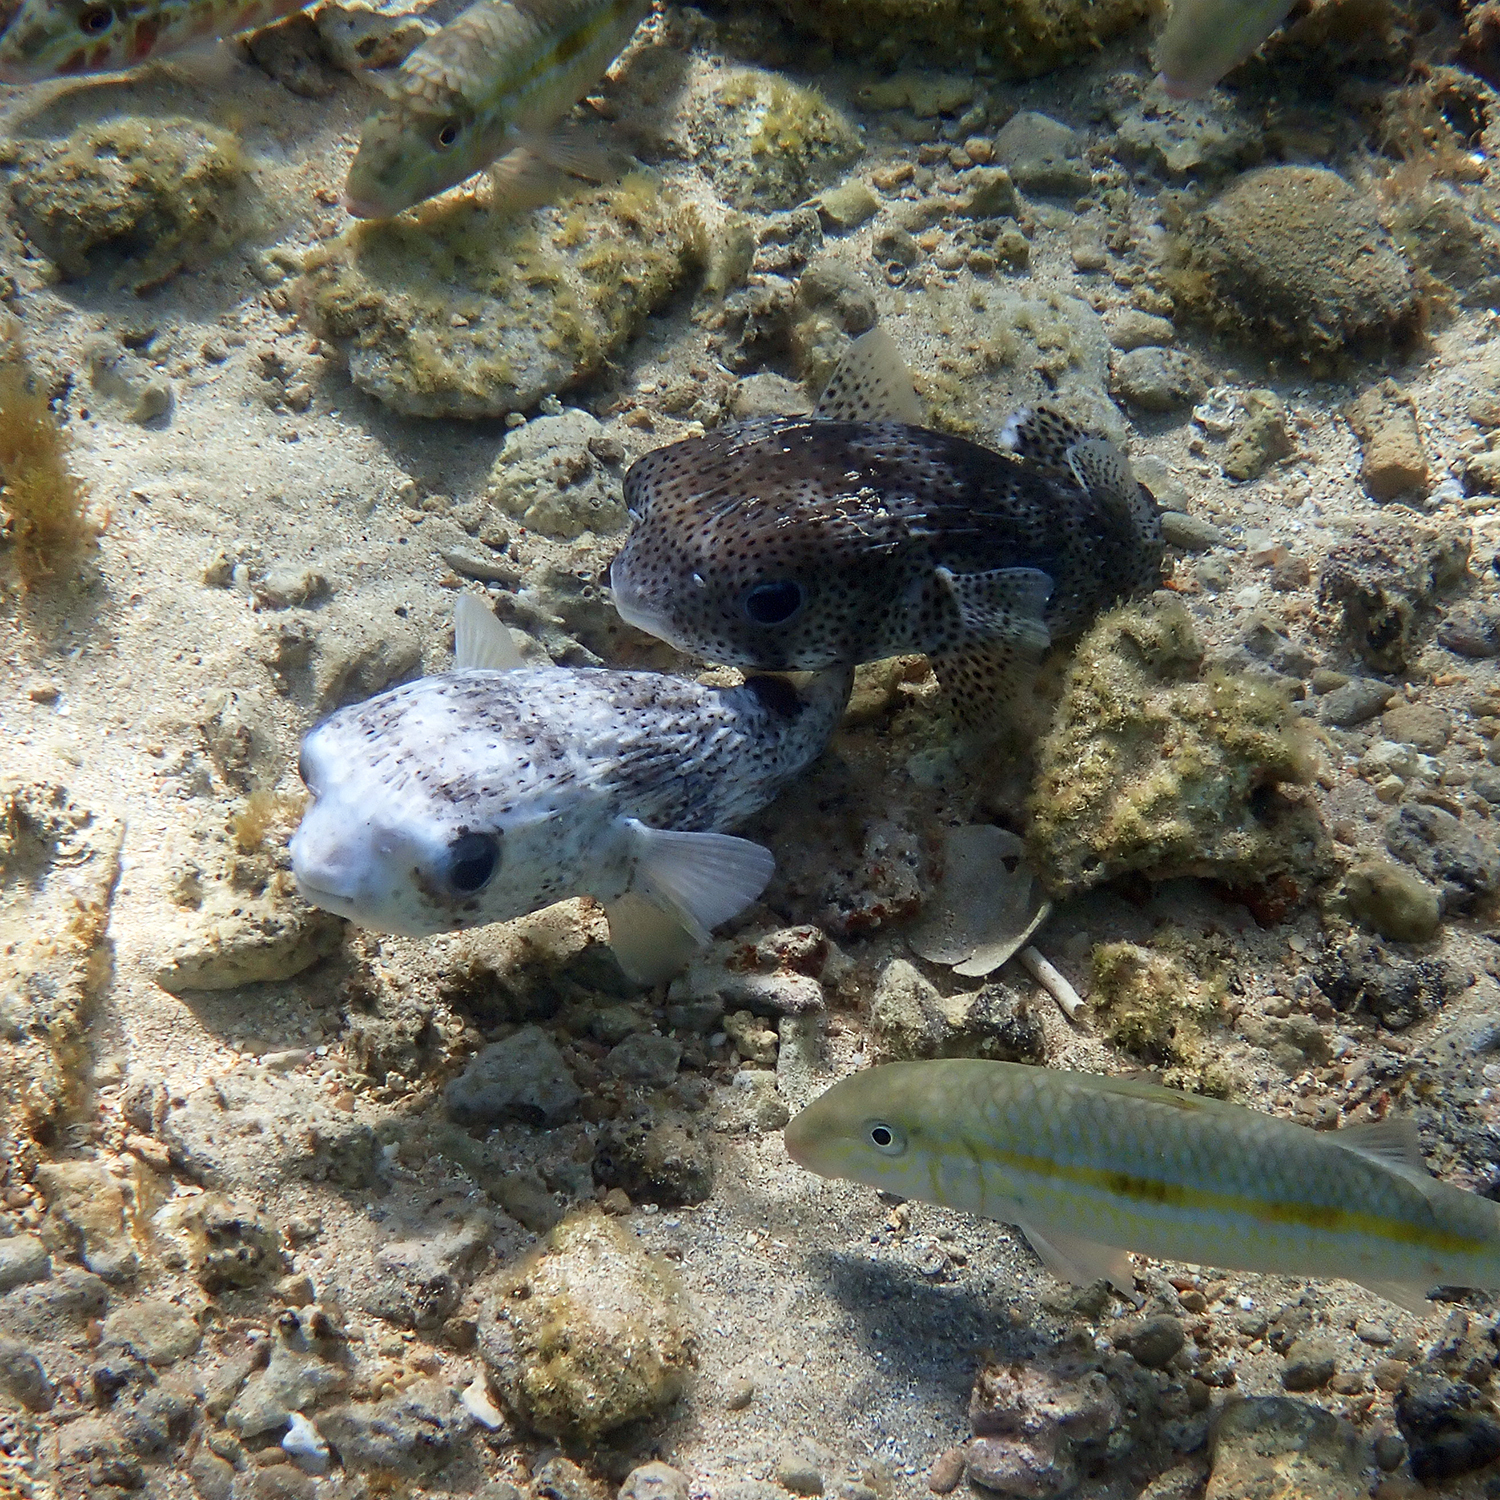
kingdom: Animalia
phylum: Chordata
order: Tetraodontiformes
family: Diodontidae
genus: Diodon
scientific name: Diodon hystrix
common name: Giant porcupinefish
